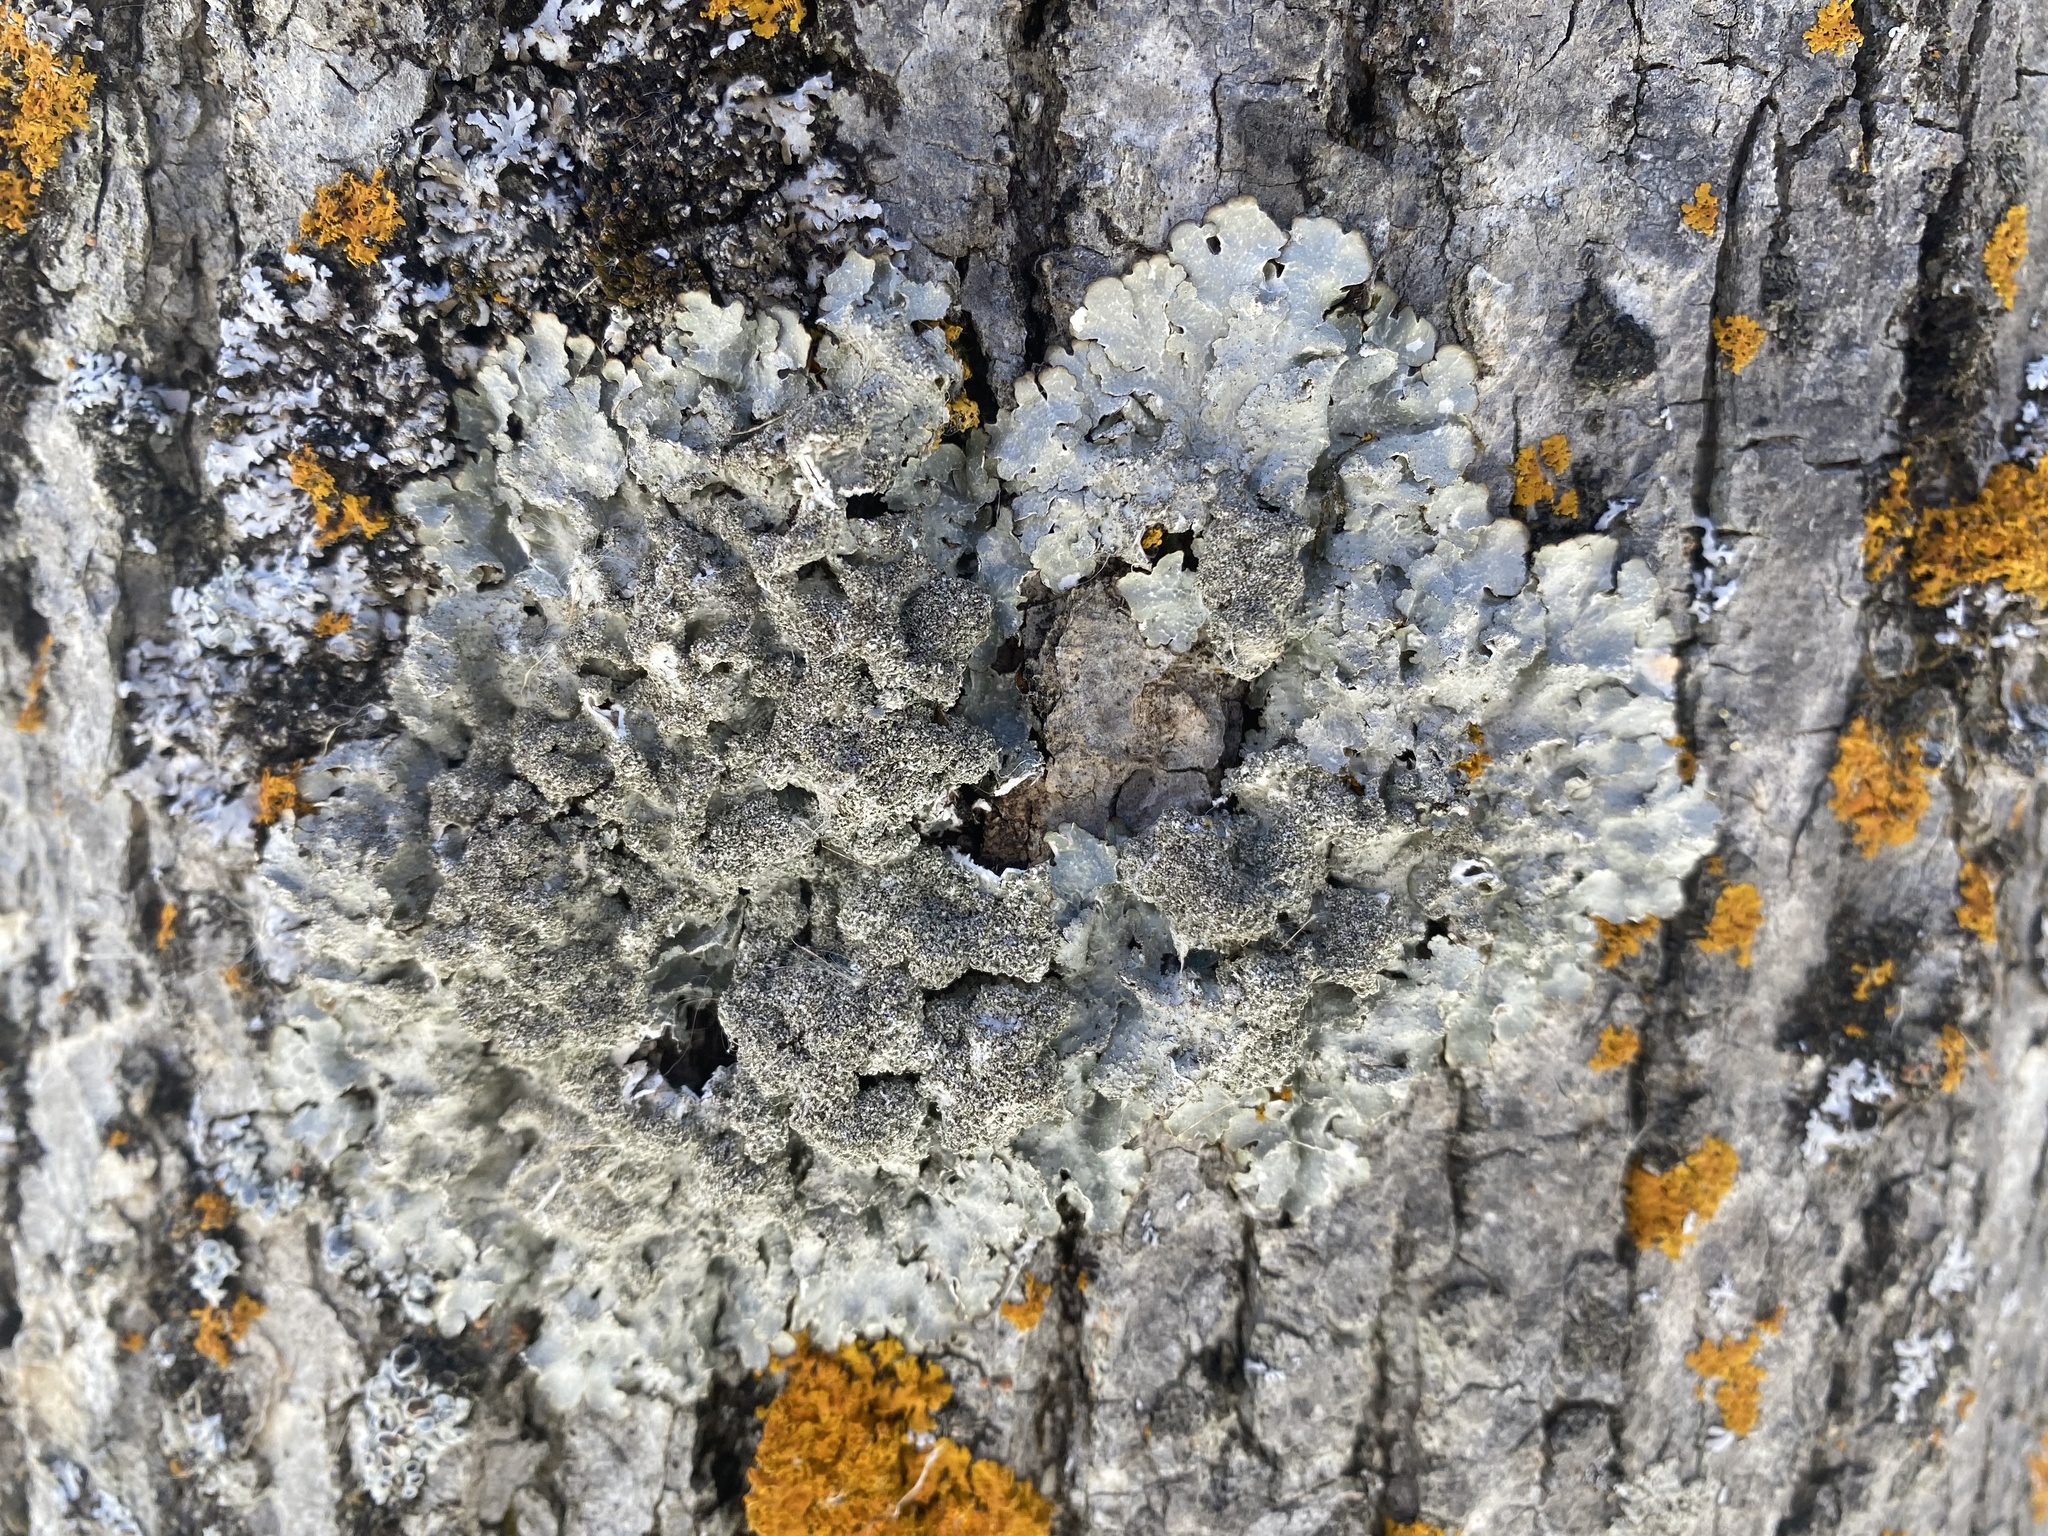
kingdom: Fungi
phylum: Ascomycota
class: Lecanoromycetes
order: Lecanorales
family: Parmeliaceae
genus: Punctelia
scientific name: Punctelia rudecta
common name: Rough speckled shield lichen
